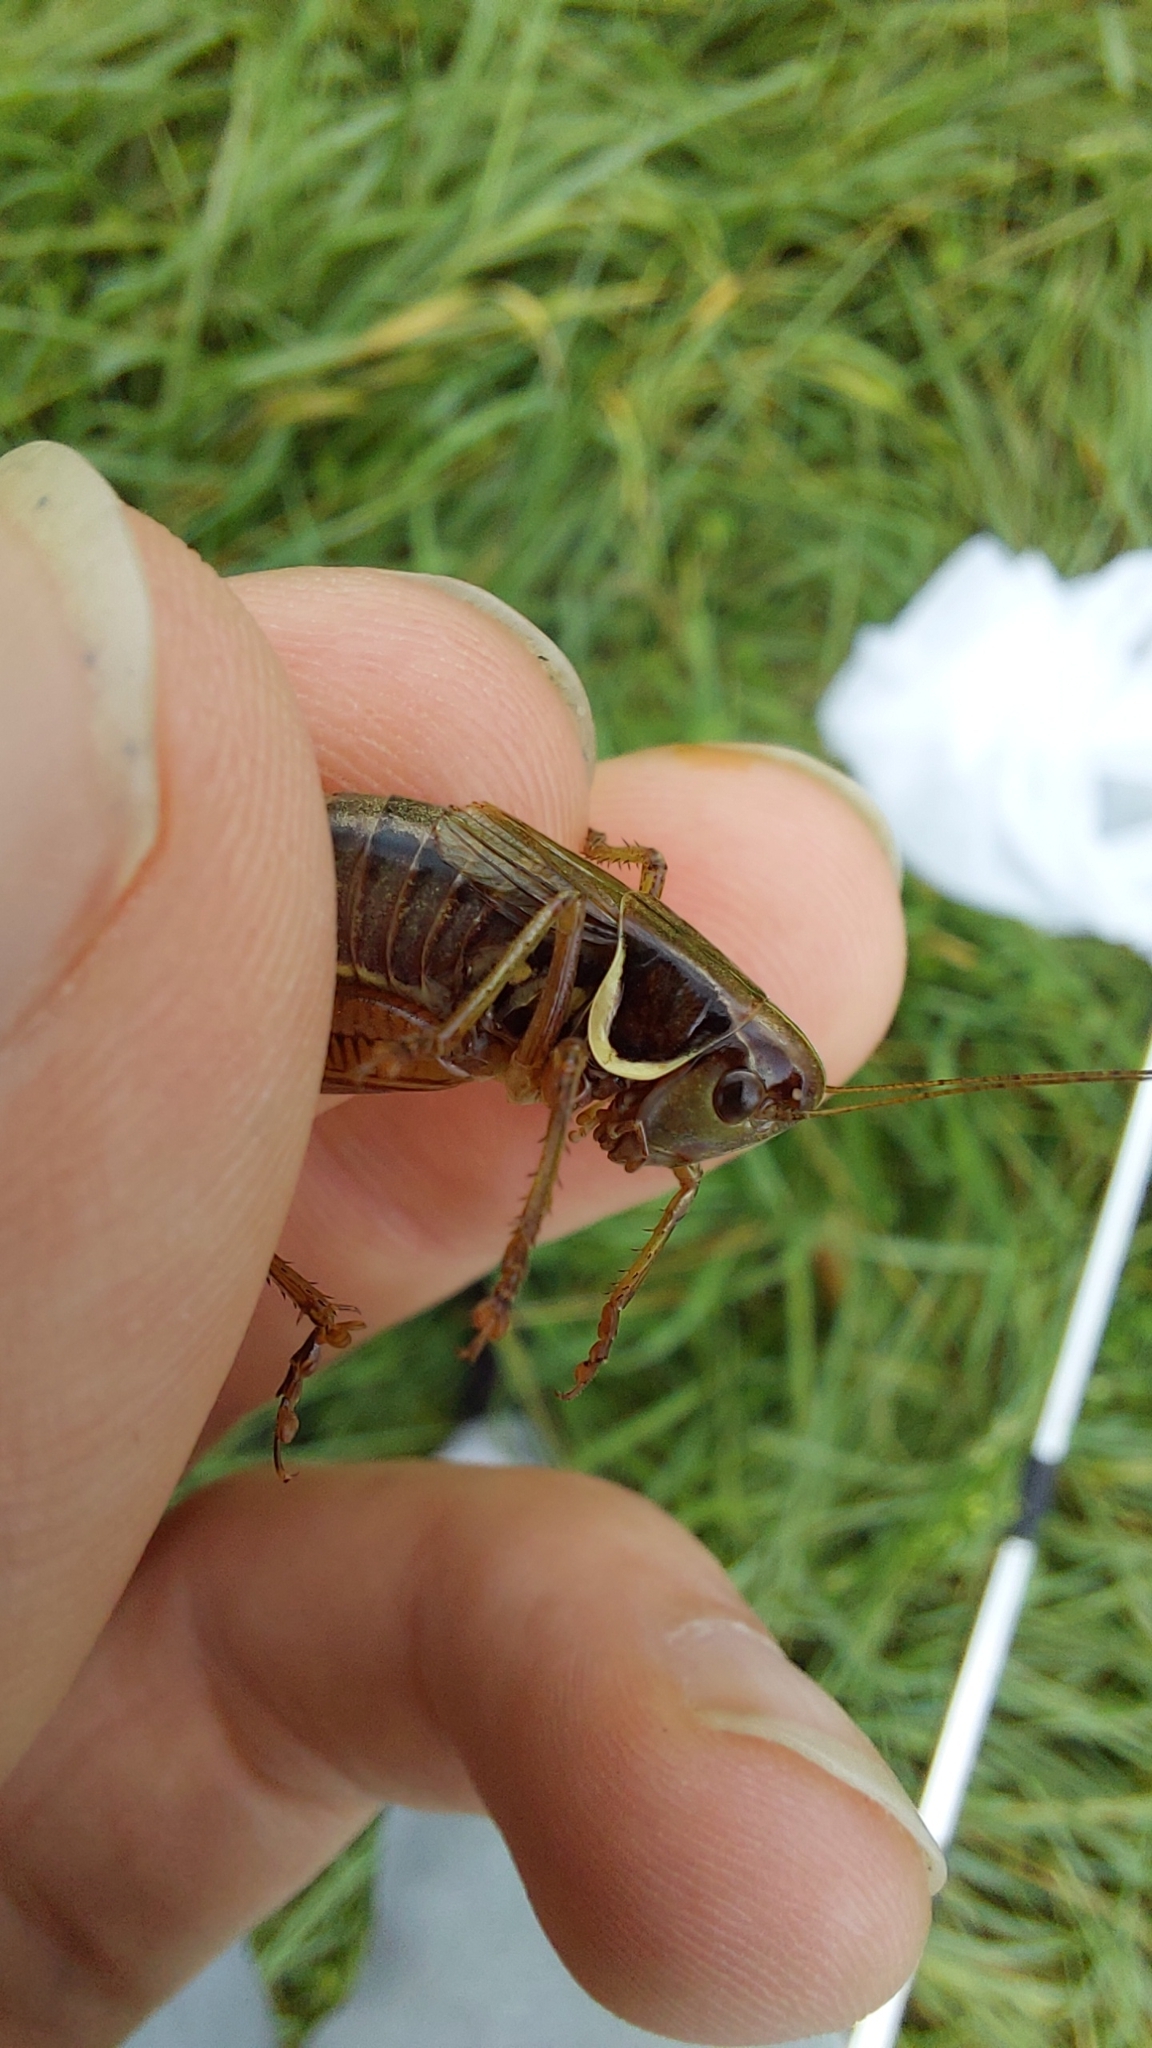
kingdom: Animalia
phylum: Arthropoda
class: Insecta
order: Orthoptera
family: Tettigoniidae
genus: Roeseliana
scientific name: Roeseliana roeselii
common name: Roesel's bush cricket
